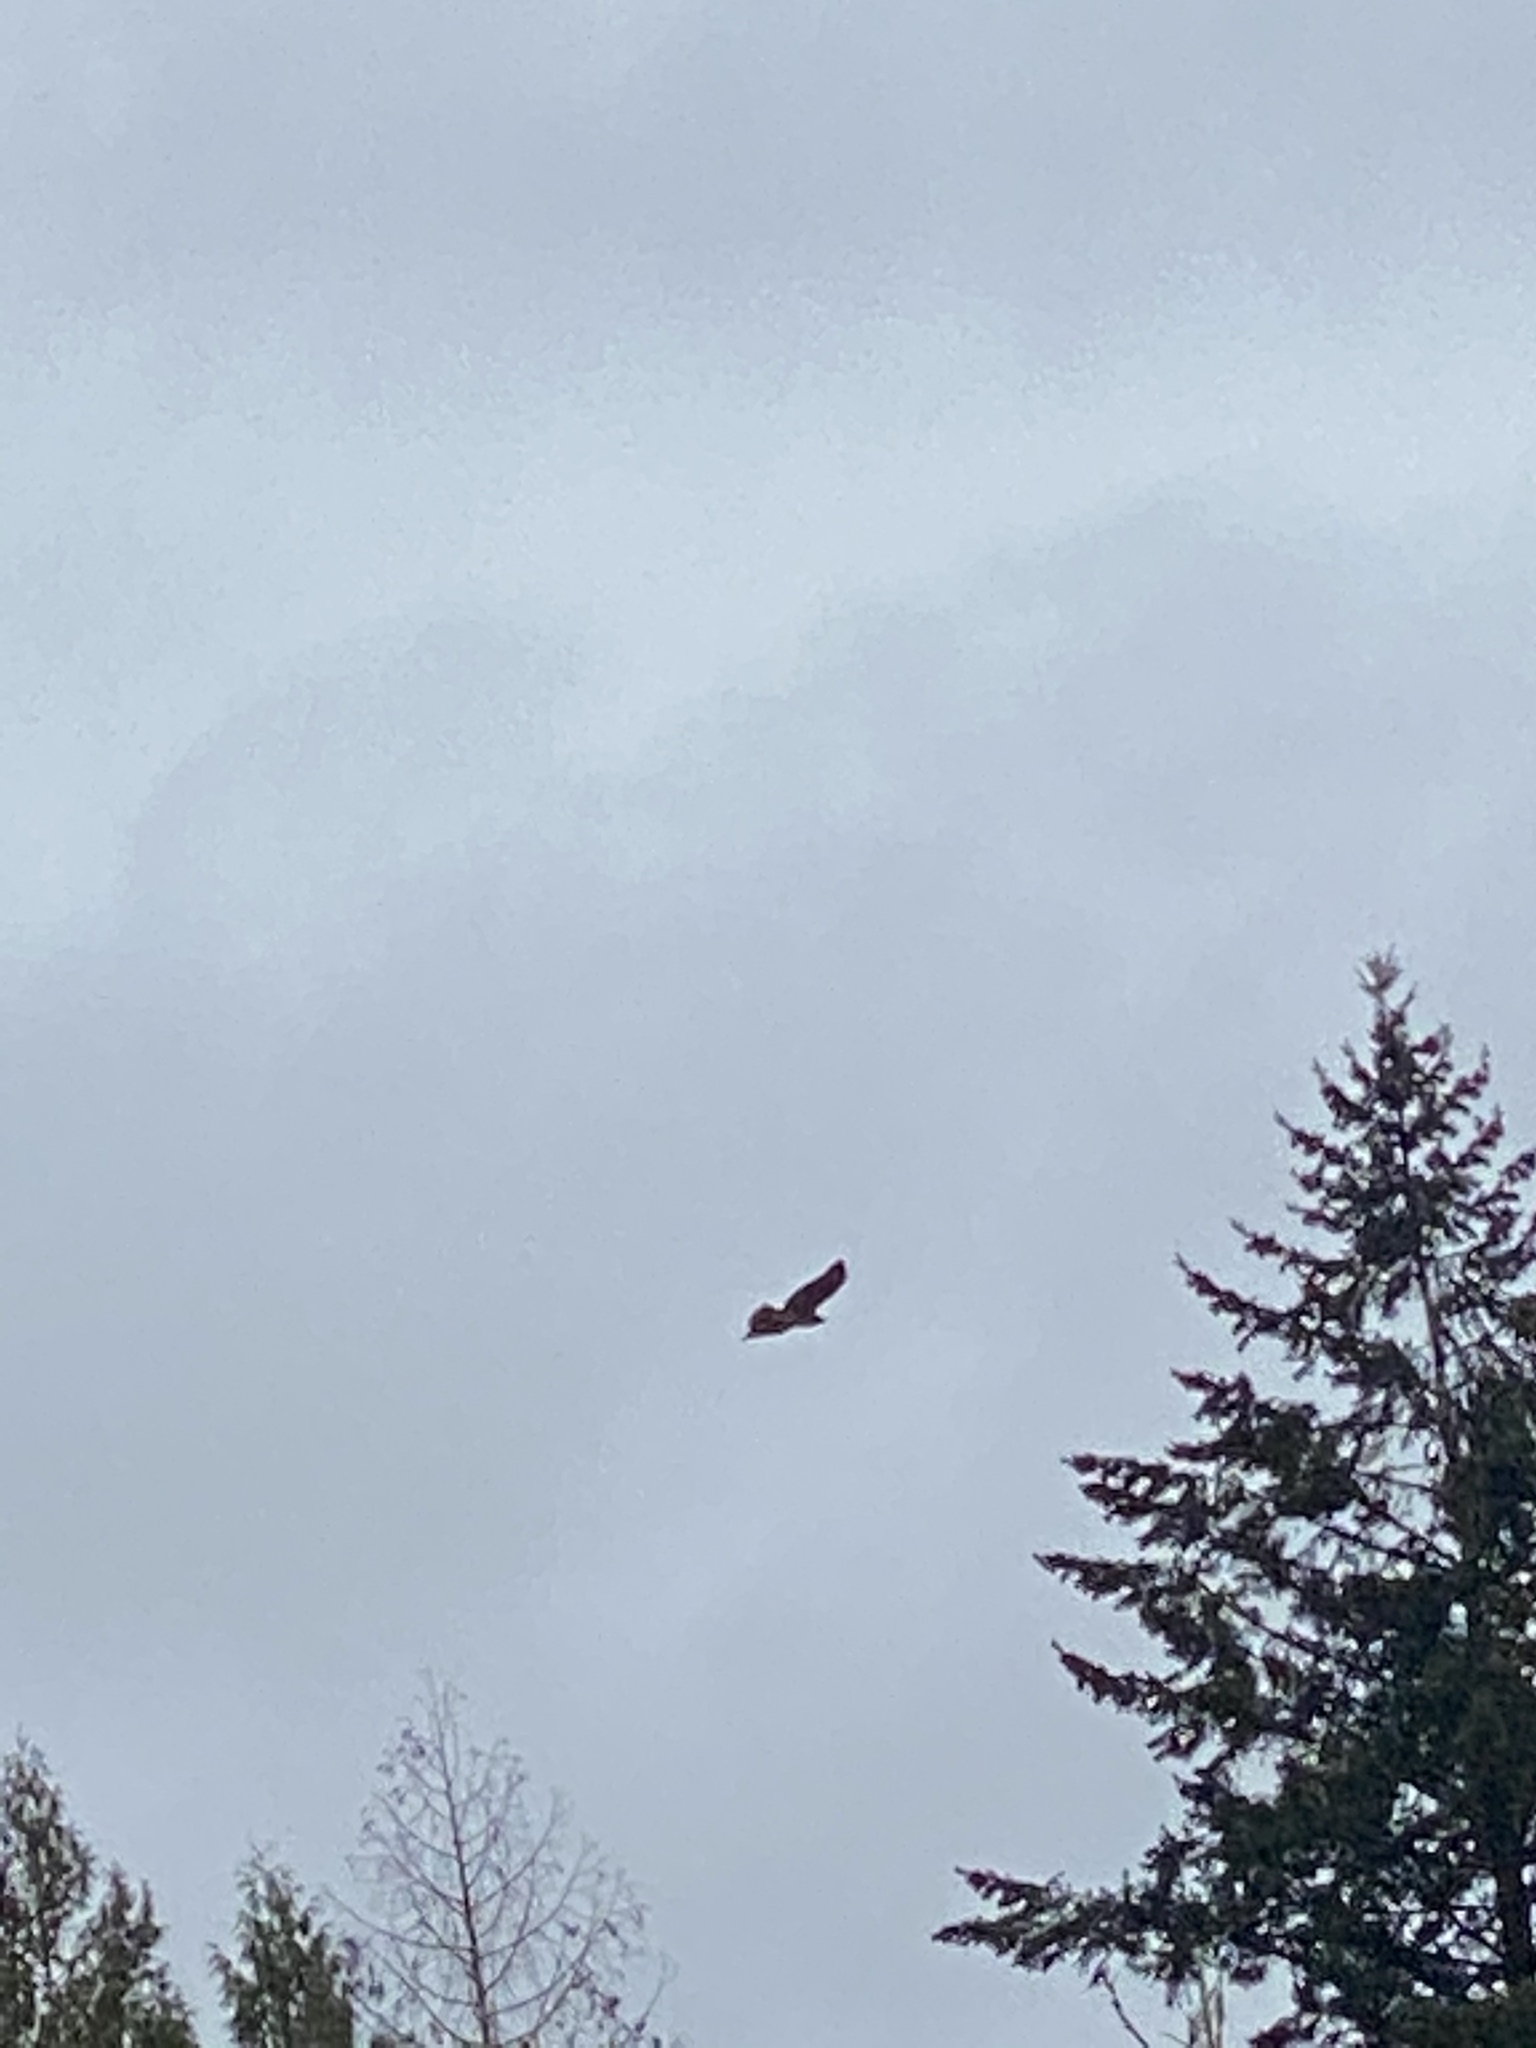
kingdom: Animalia
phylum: Chordata
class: Aves
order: Accipitriformes
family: Accipitridae
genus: Buteo
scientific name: Buteo jamaicensis
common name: Red-tailed hawk
